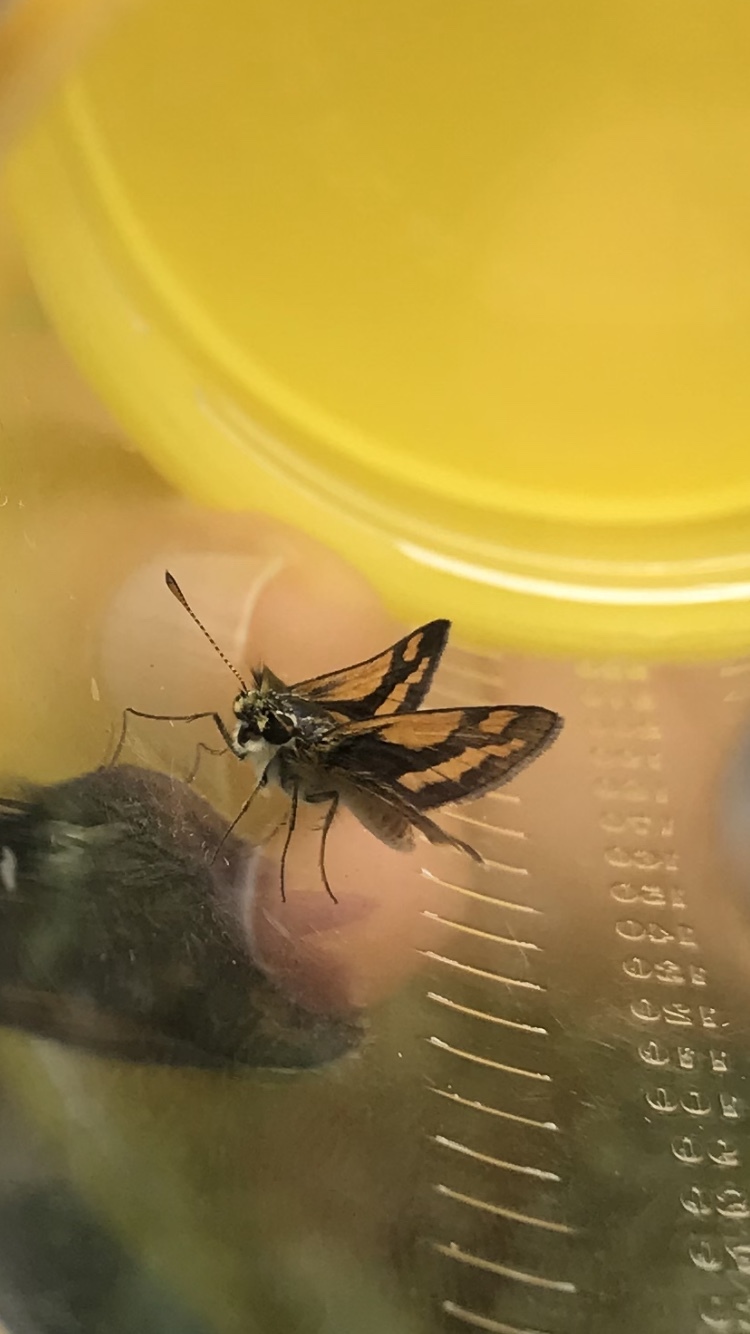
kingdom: Animalia
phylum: Arthropoda
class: Insecta
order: Lepidoptera
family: Hesperiidae
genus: Ocybadistes
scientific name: Ocybadistes flavovittata
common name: Narrow-brand grass-dart
